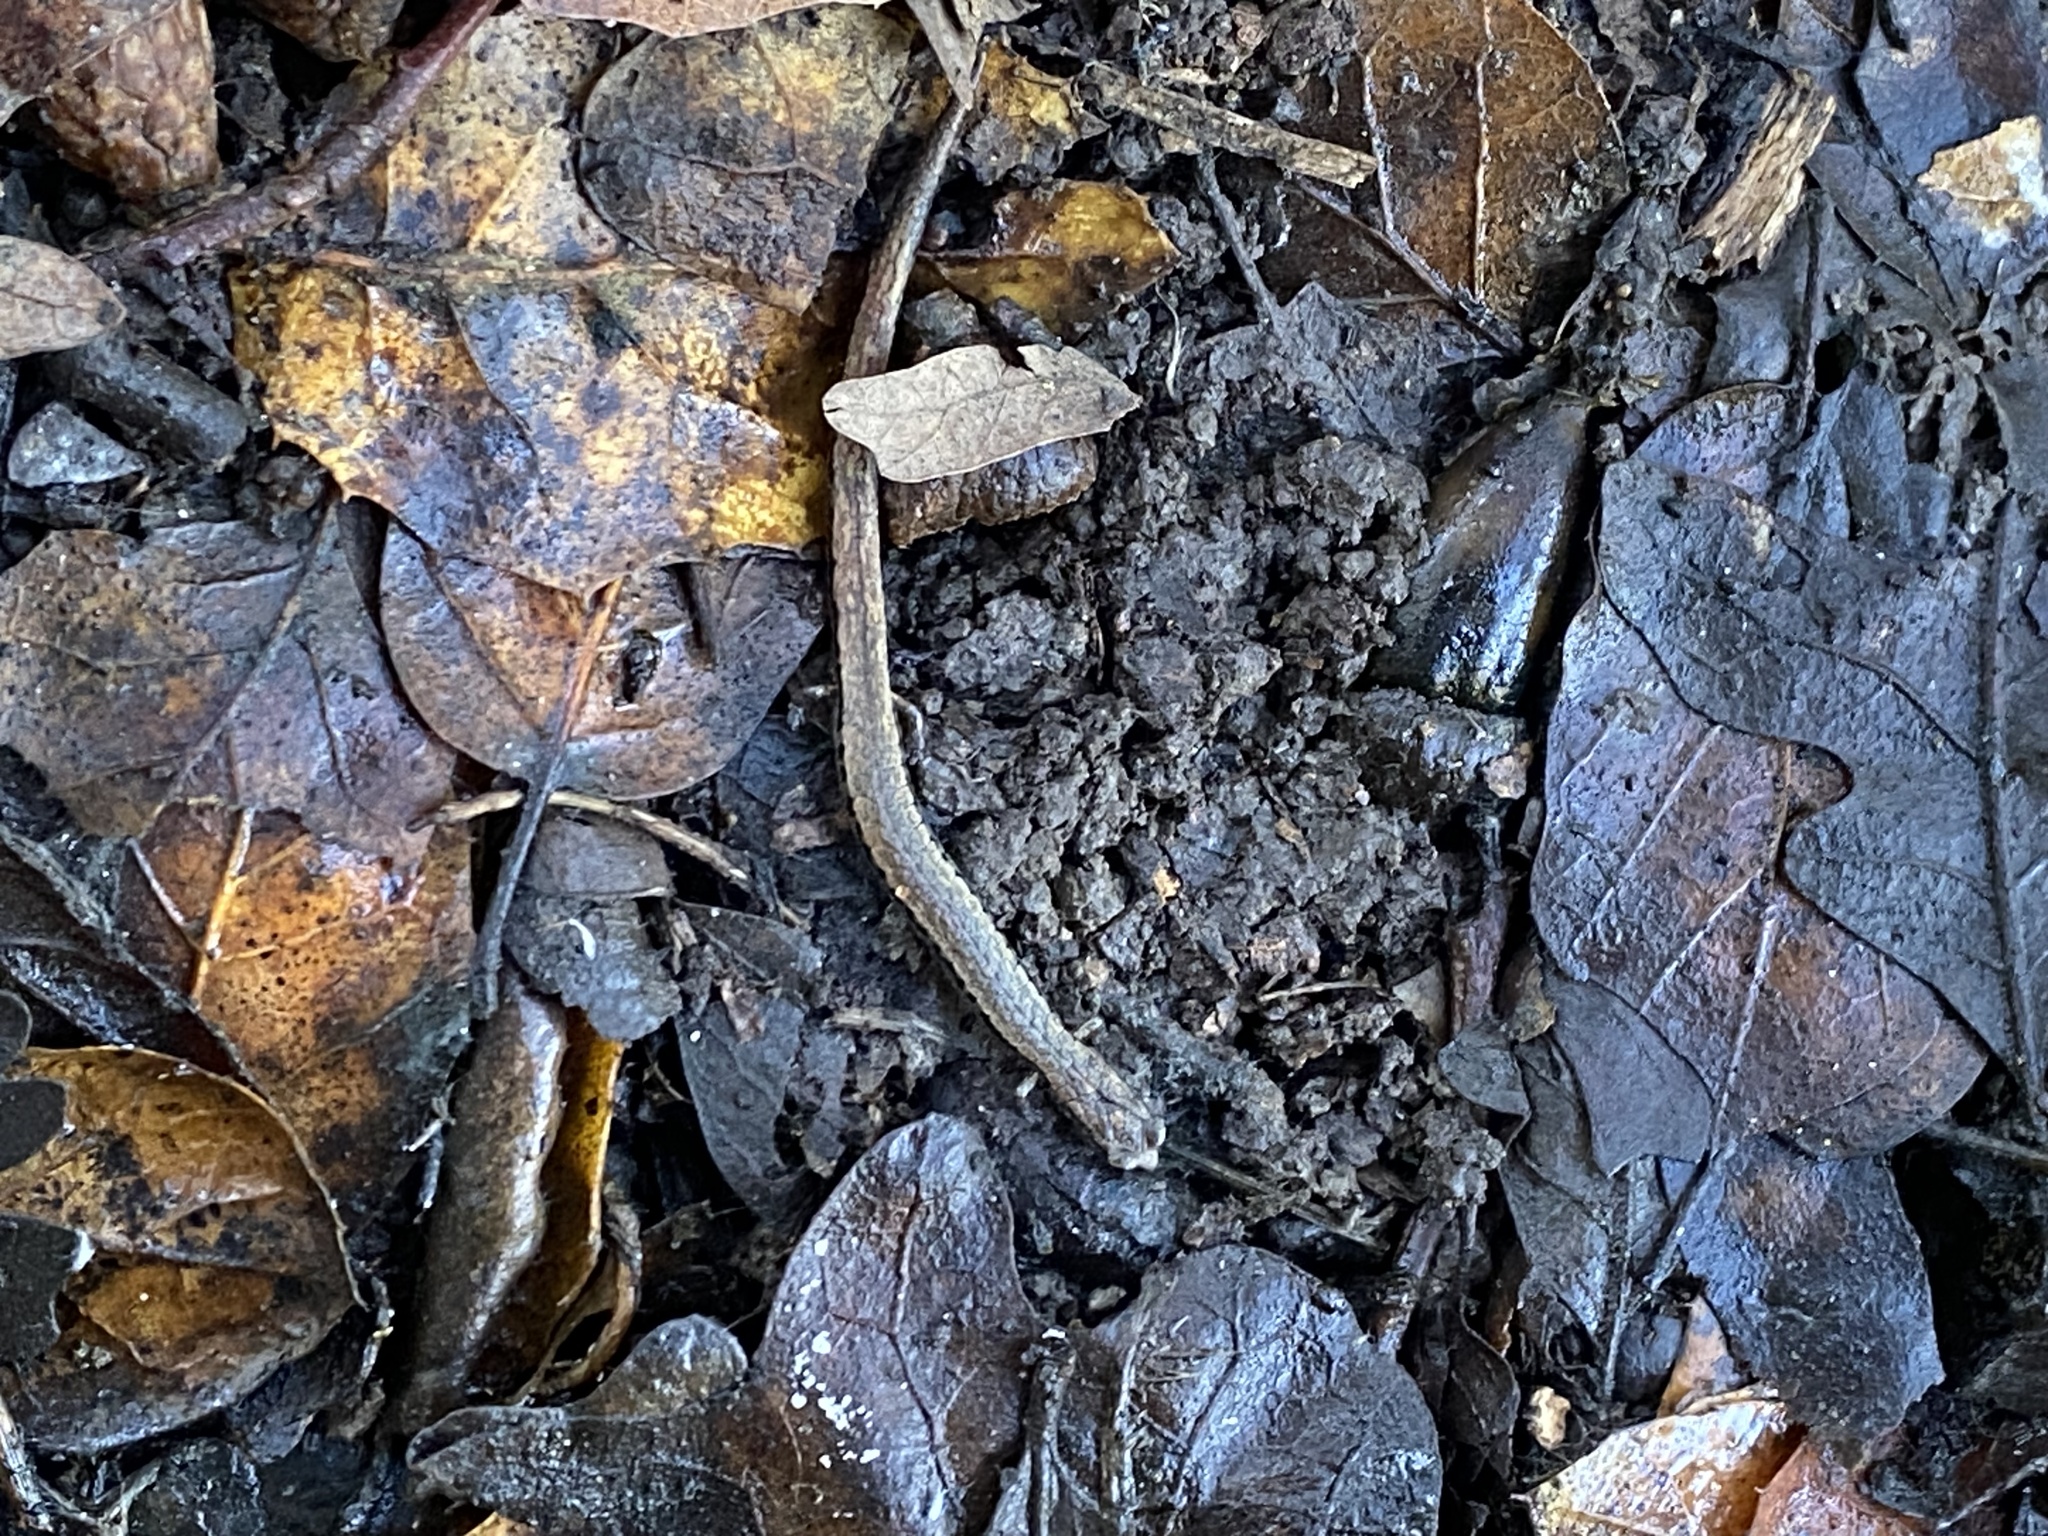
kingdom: Animalia
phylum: Chordata
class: Amphibia
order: Caudata
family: Plethodontidae
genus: Batrachoseps
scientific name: Batrachoseps attenuatus
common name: California slender salamander
